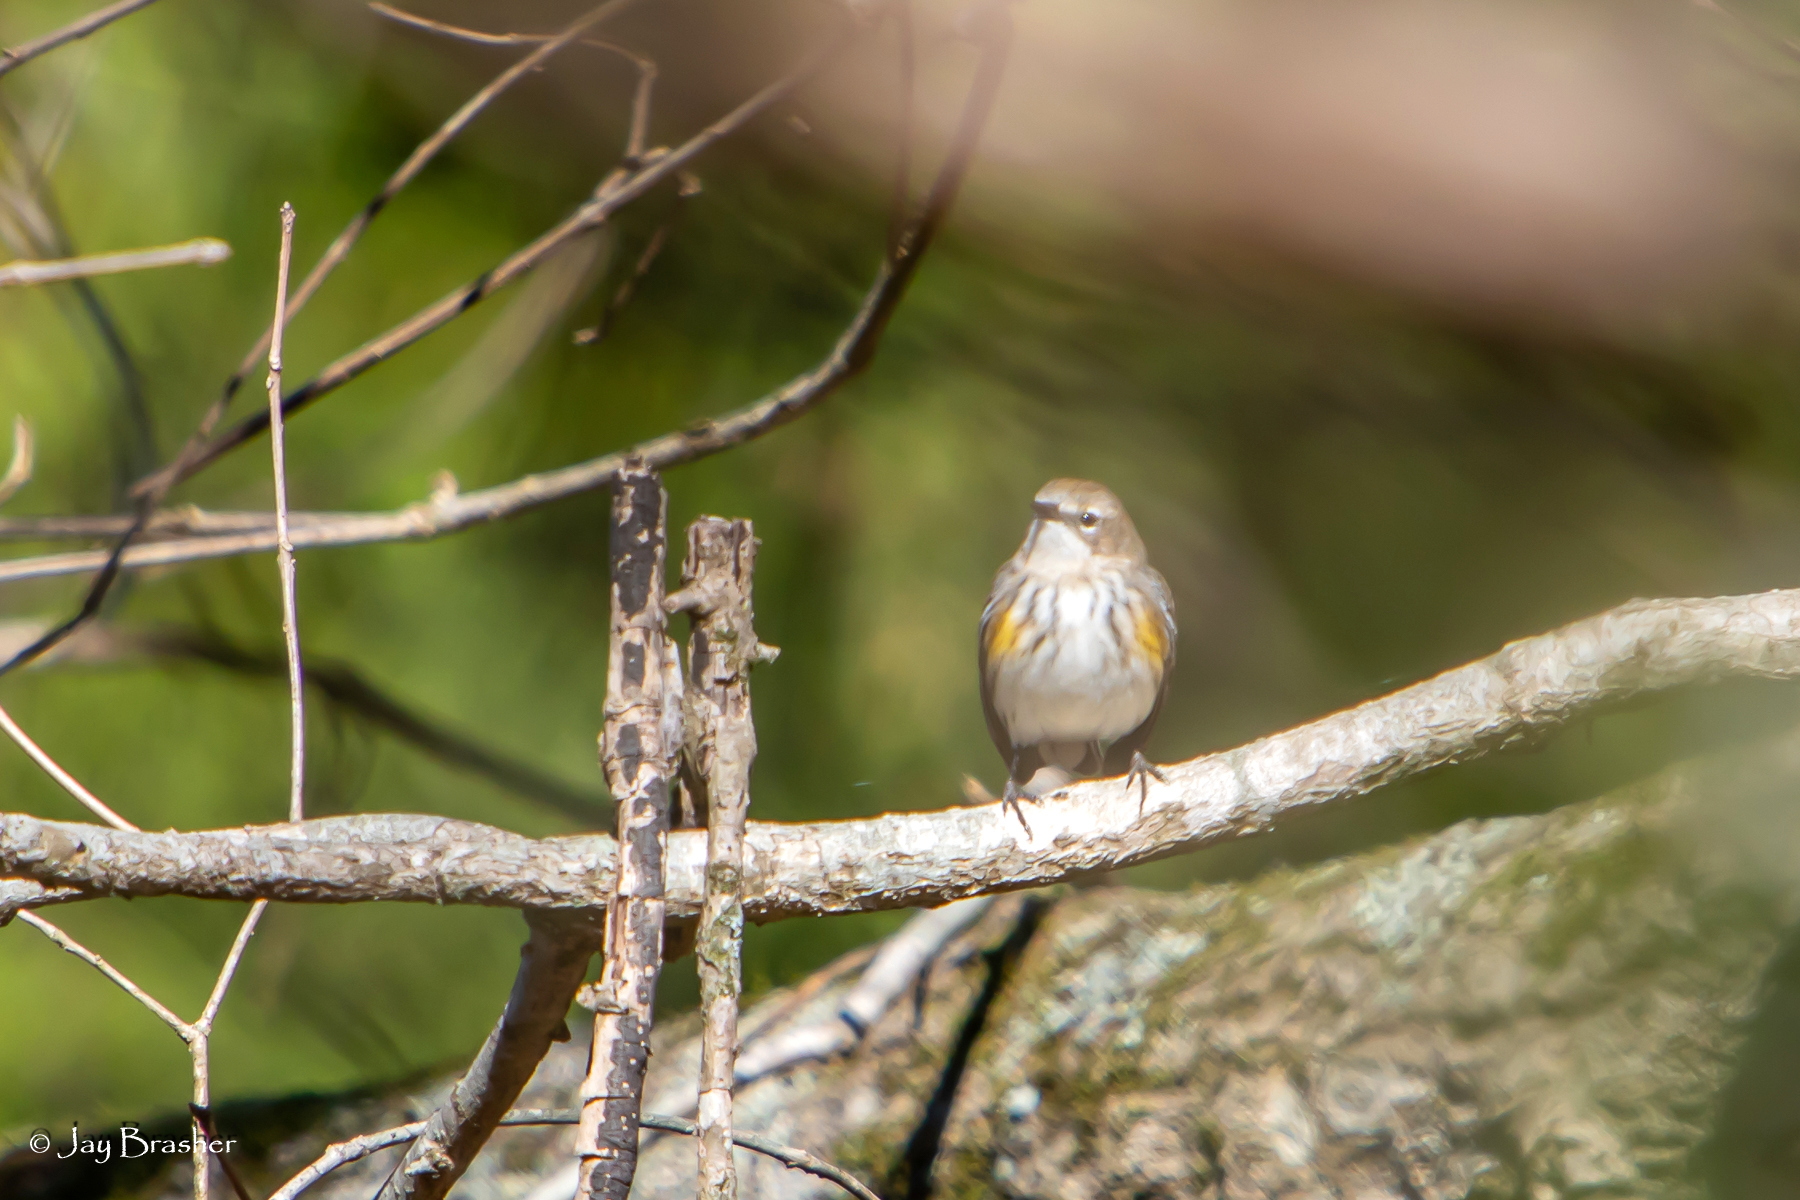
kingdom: Animalia
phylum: Chordata
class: Aves
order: Passeriformes
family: Parulidae
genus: Setophaga
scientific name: Setophaga coronata
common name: Myrtle warbler
